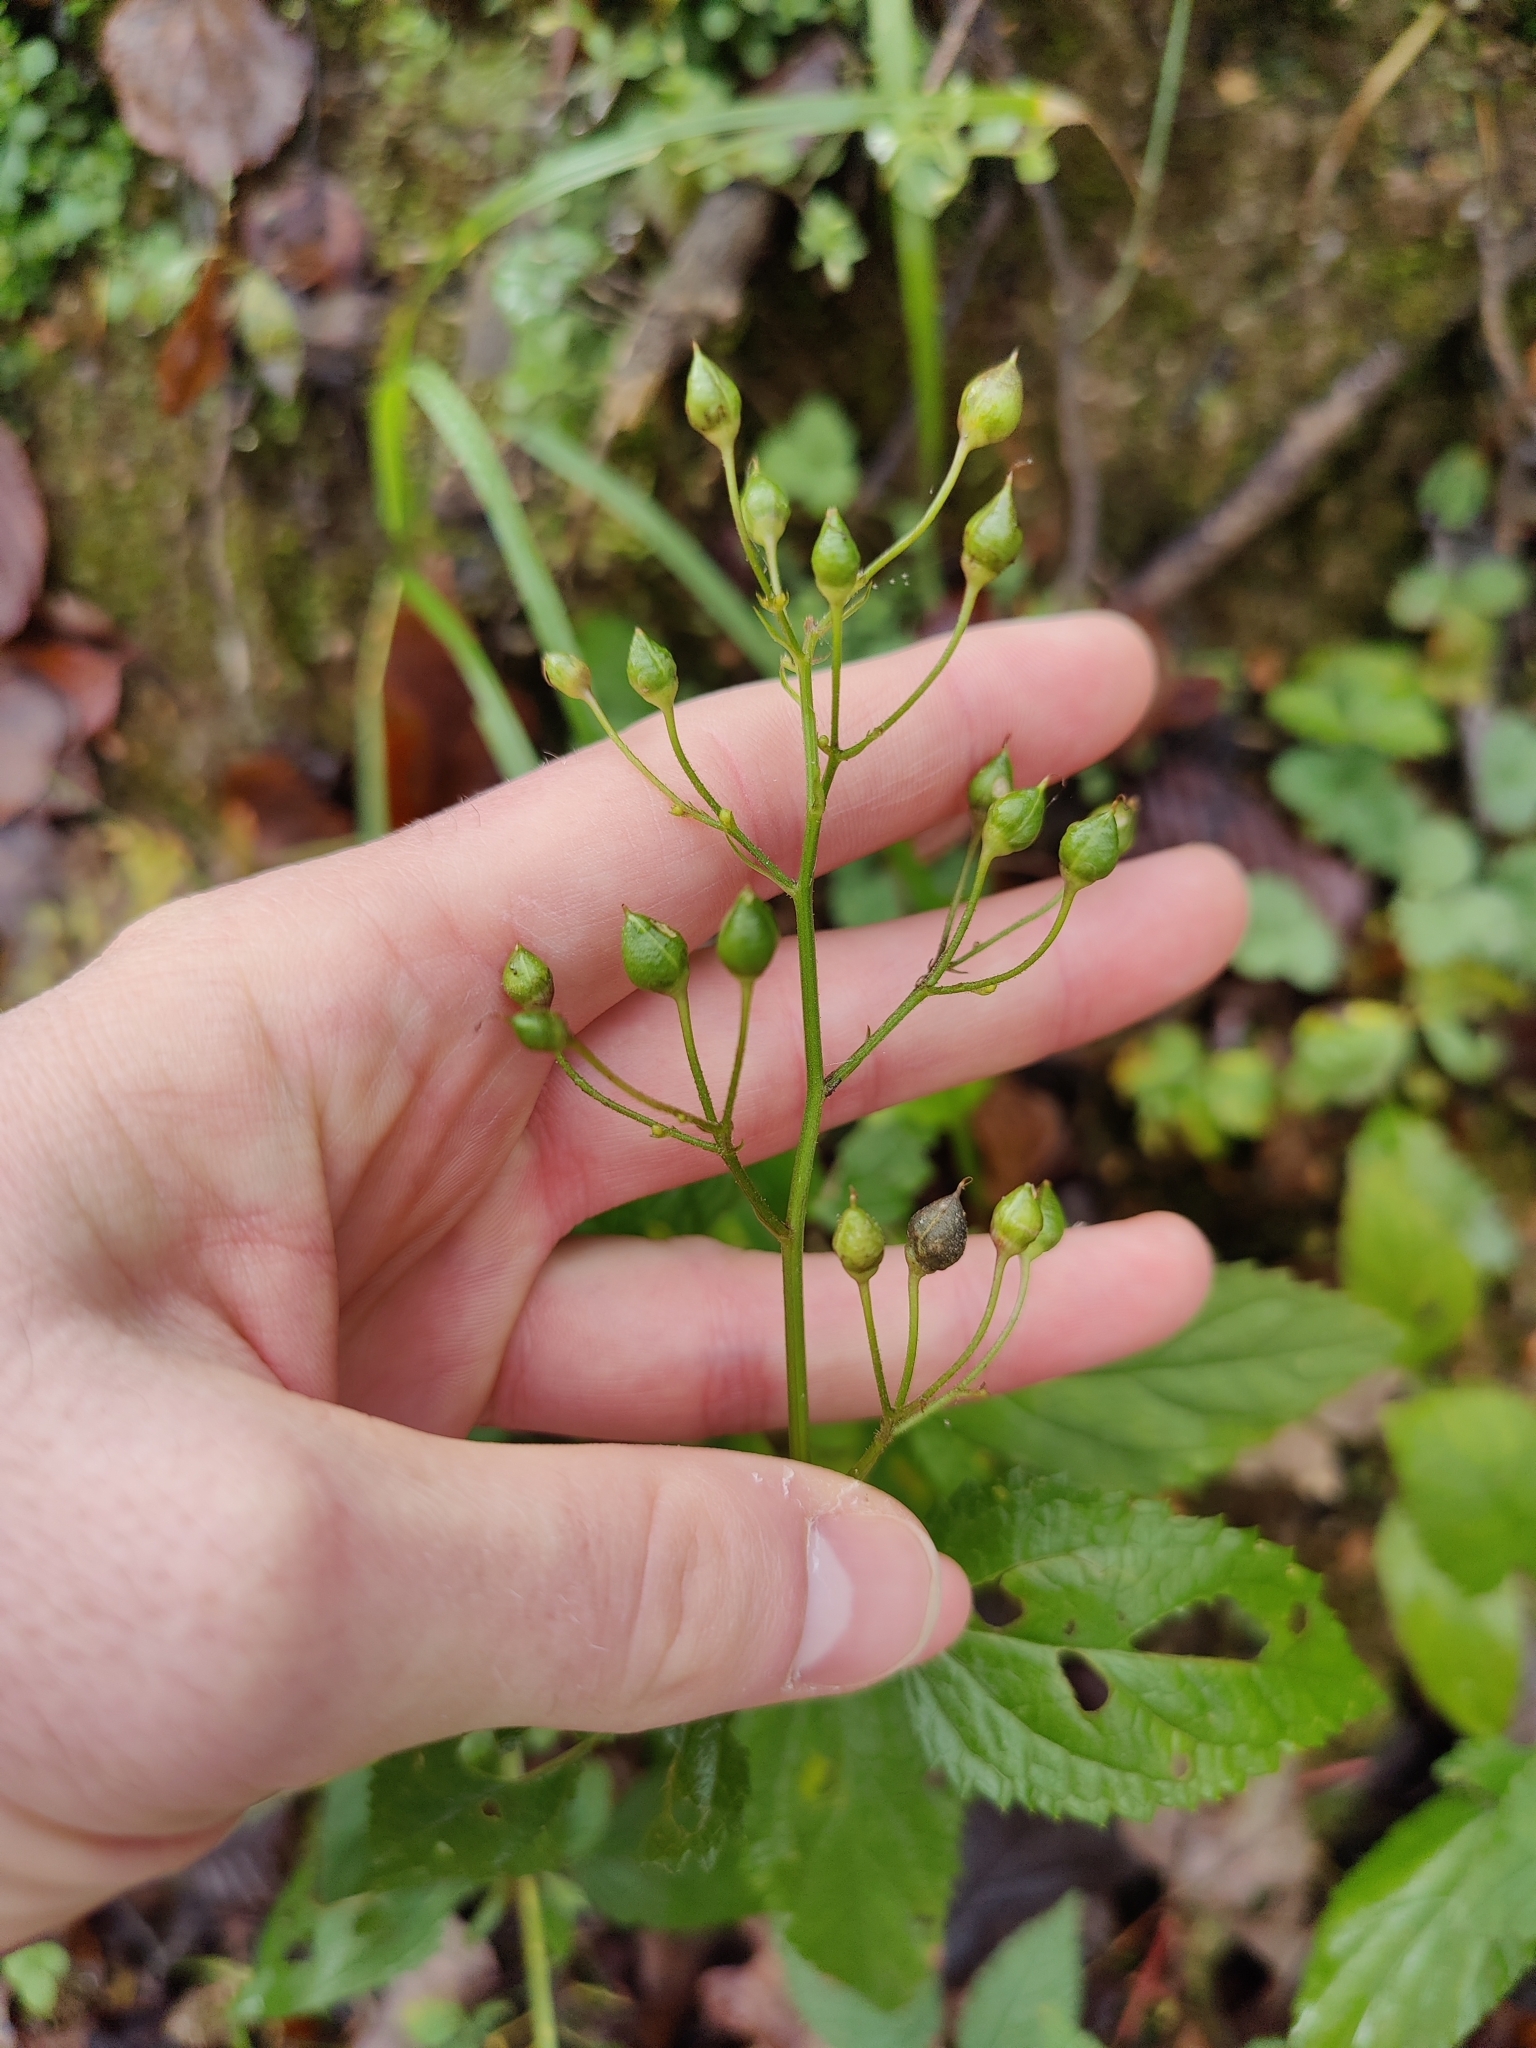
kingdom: Plantae
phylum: Tracheophyta
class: Magnoliopsida
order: Lamiales
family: Scrophulariaceae
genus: Scrophularia
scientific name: Scrophularia nodosa
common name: Common figwort
